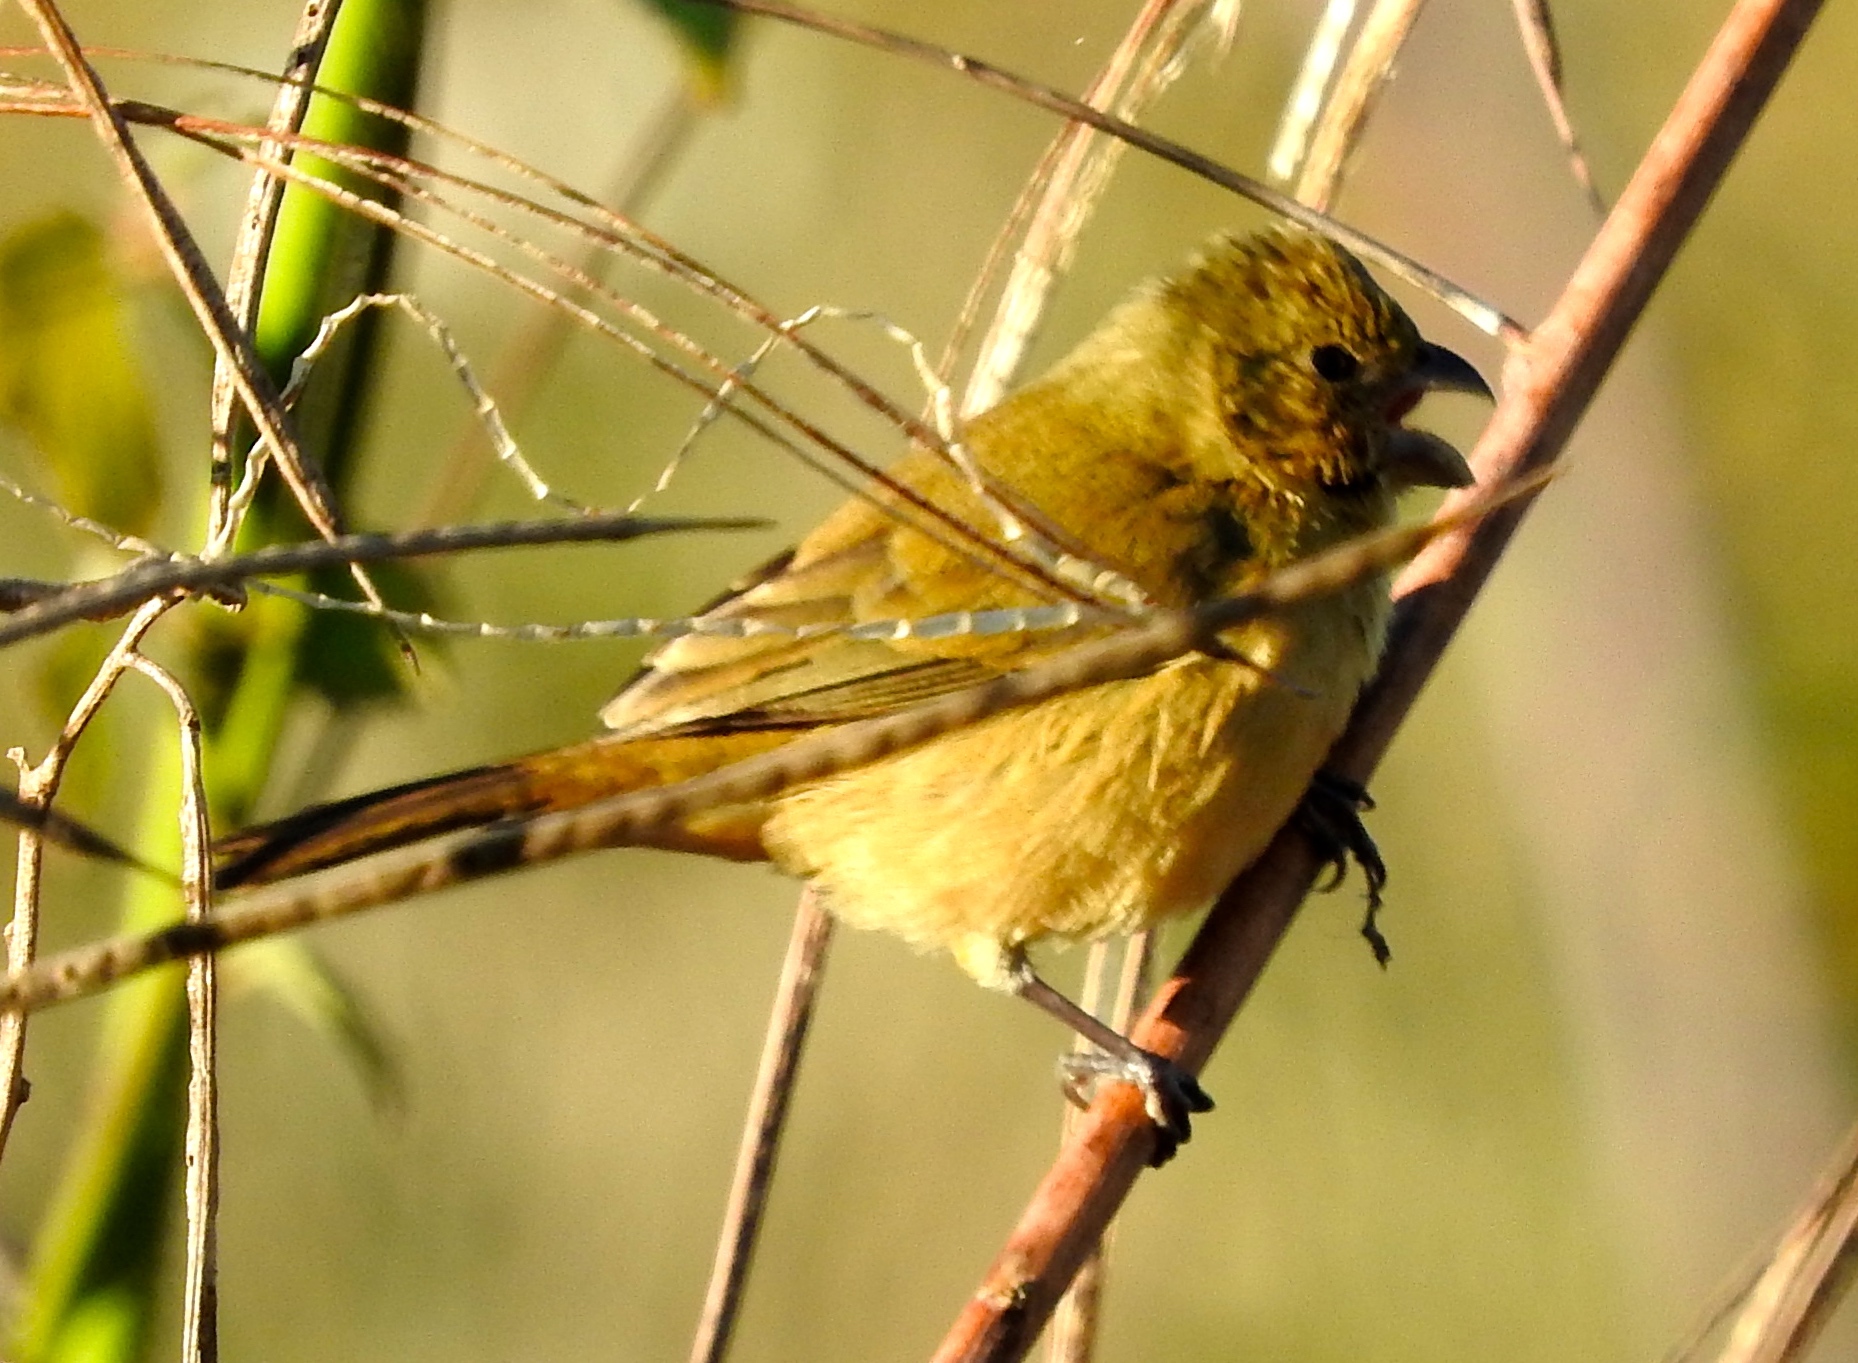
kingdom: Animalia
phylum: Chordata
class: Aves
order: Passeriformes
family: Thraupidae
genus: Sporophila
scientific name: Sporophila torqueola
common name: White-collared seedeater
